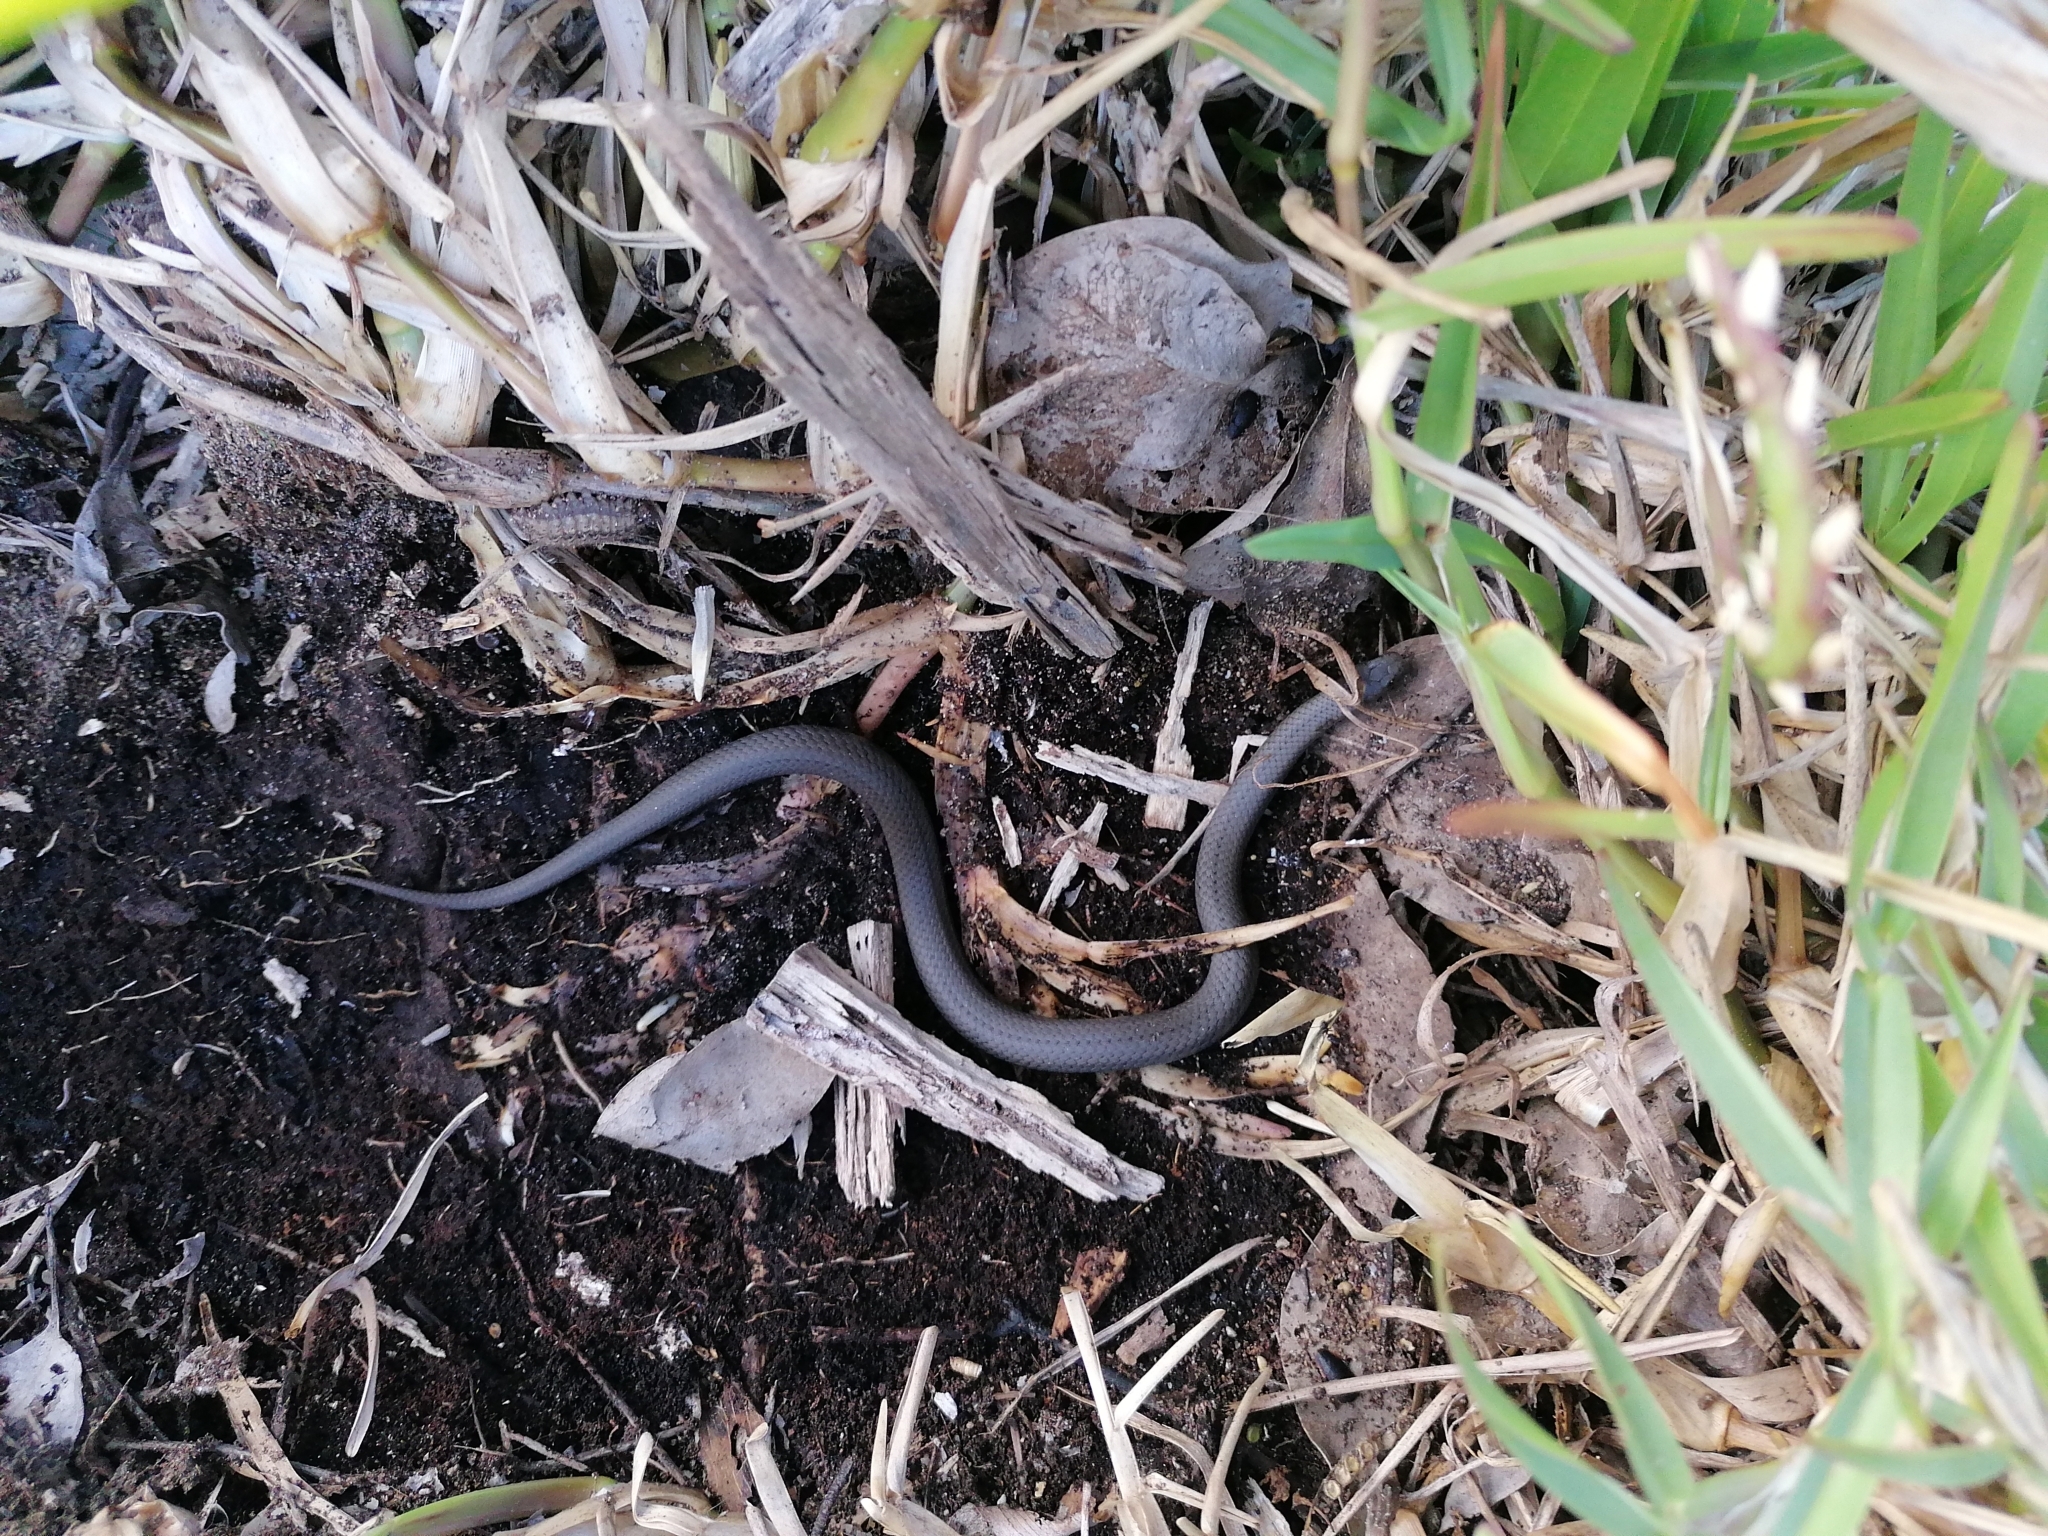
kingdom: Animalia
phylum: Chordata
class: Squamata
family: Pseudoxyrhophiidae
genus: Duberria
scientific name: Duberria lutrix
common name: Common slug eater
